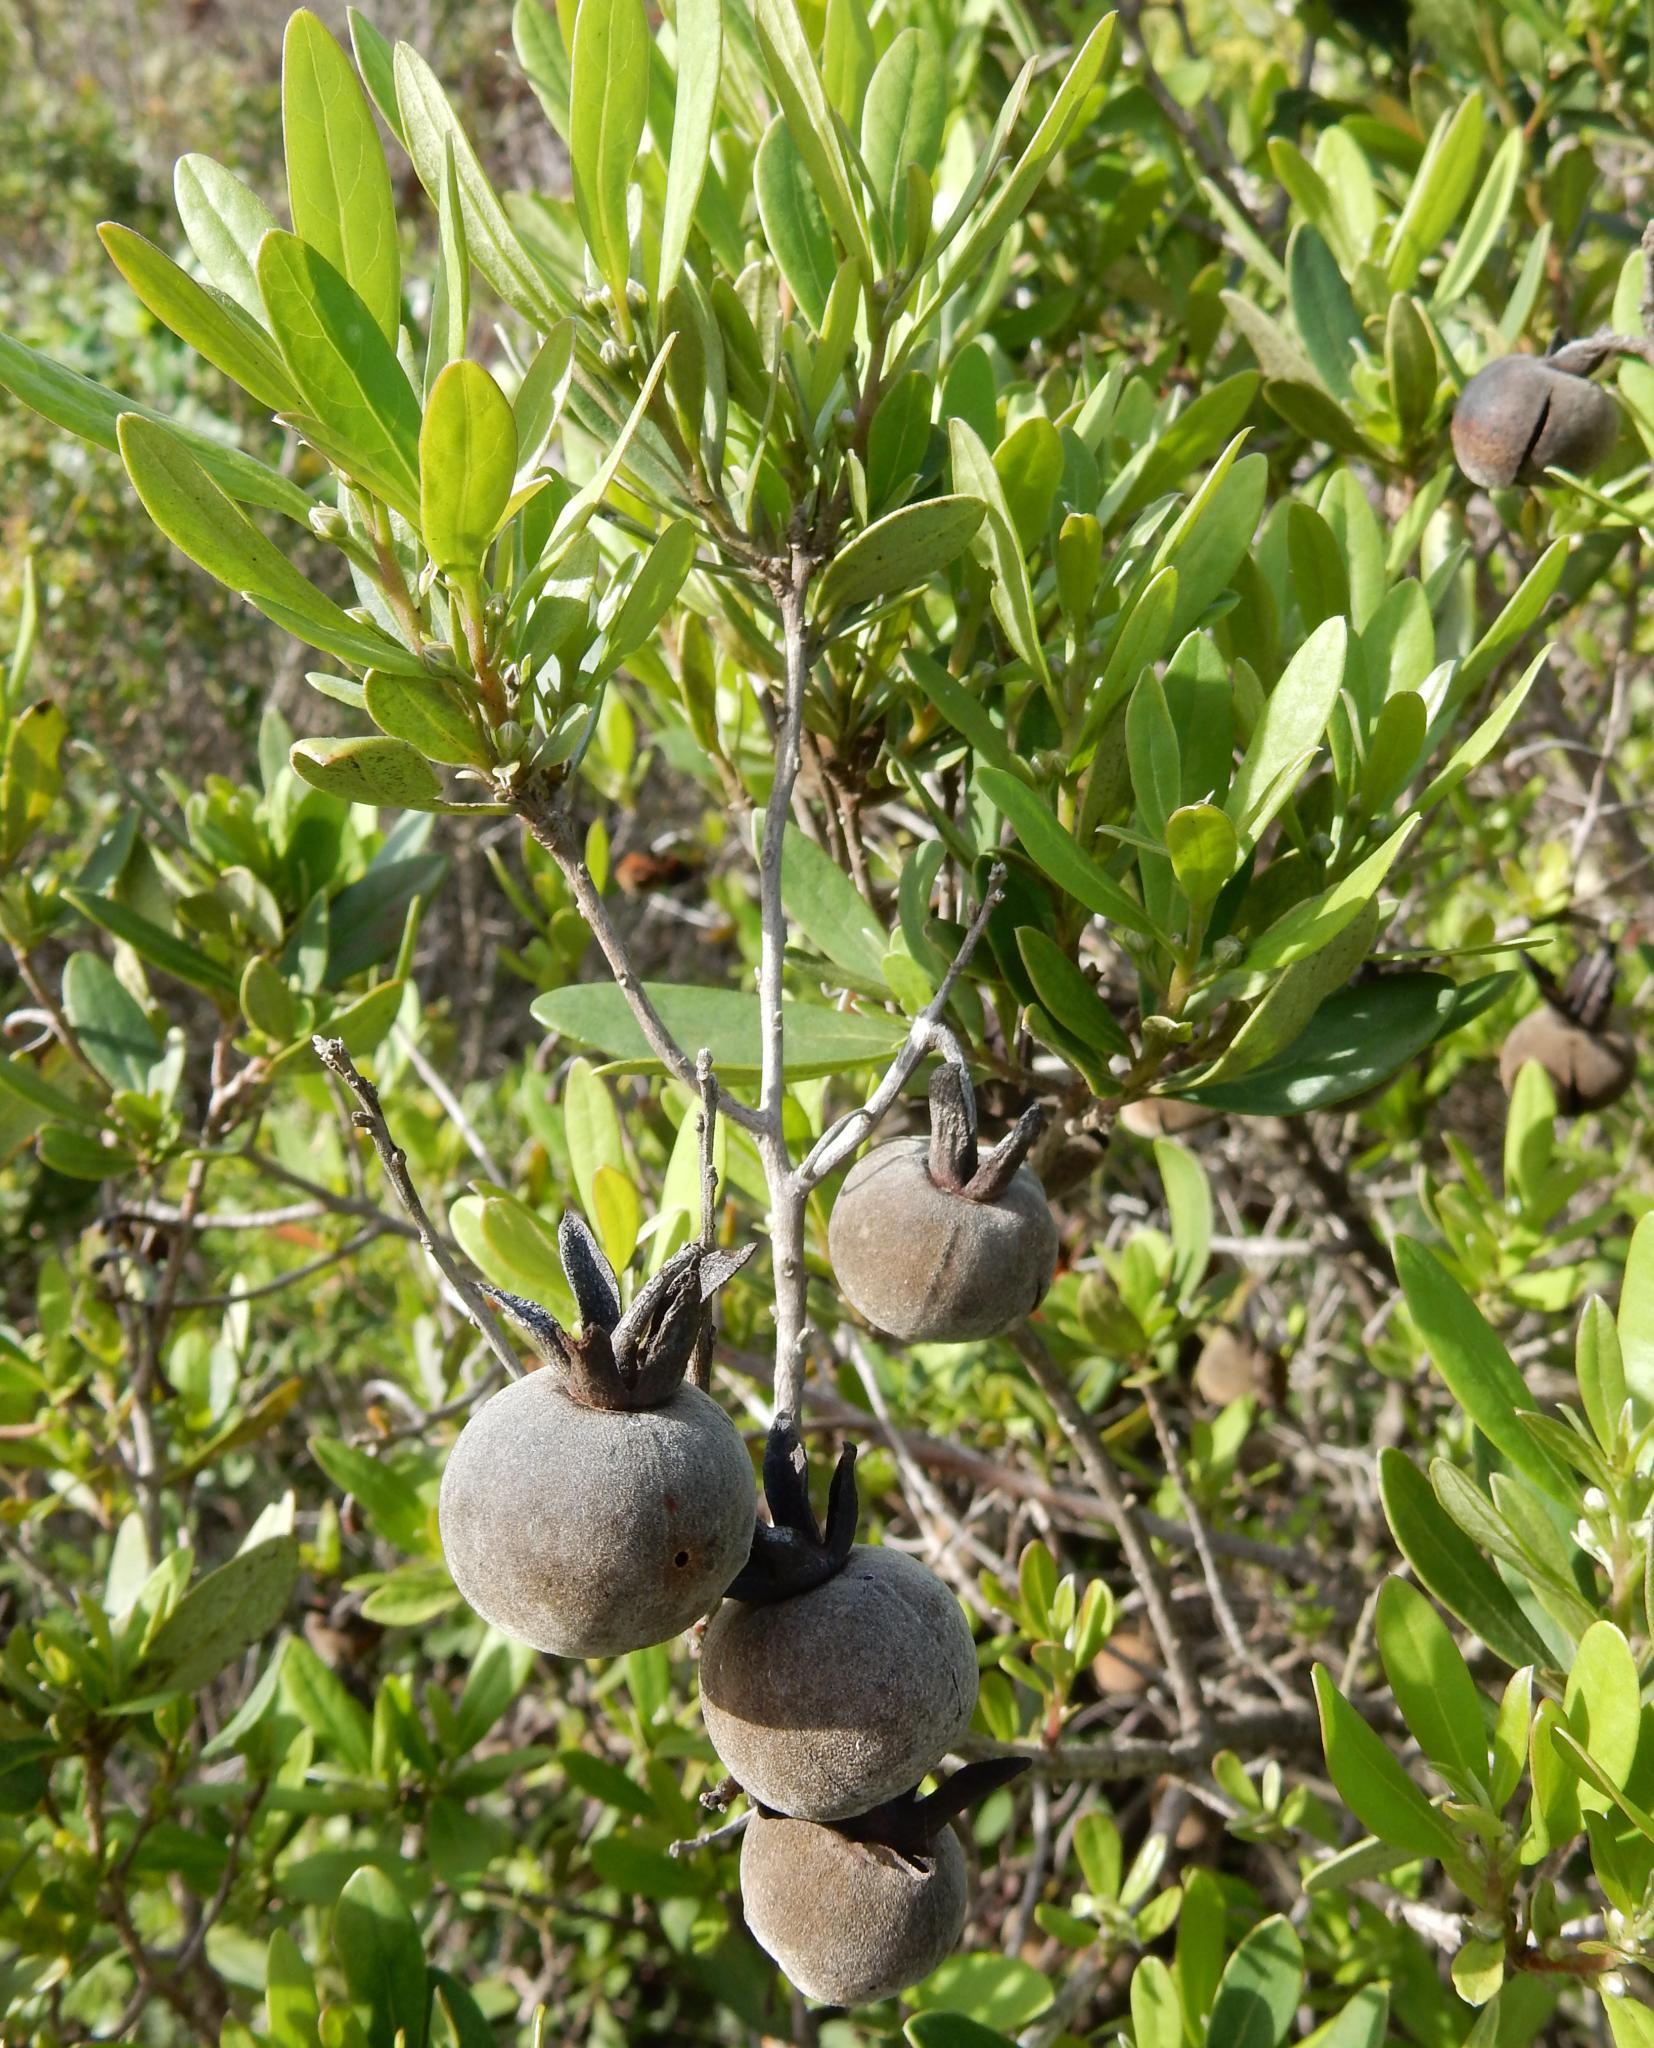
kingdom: Plantae
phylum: Tracheophyta
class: Magnoliopsida
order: Ericales
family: Ebenaceae
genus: Diospyros
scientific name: Diospyros dichrophylla
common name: Common star-apple
